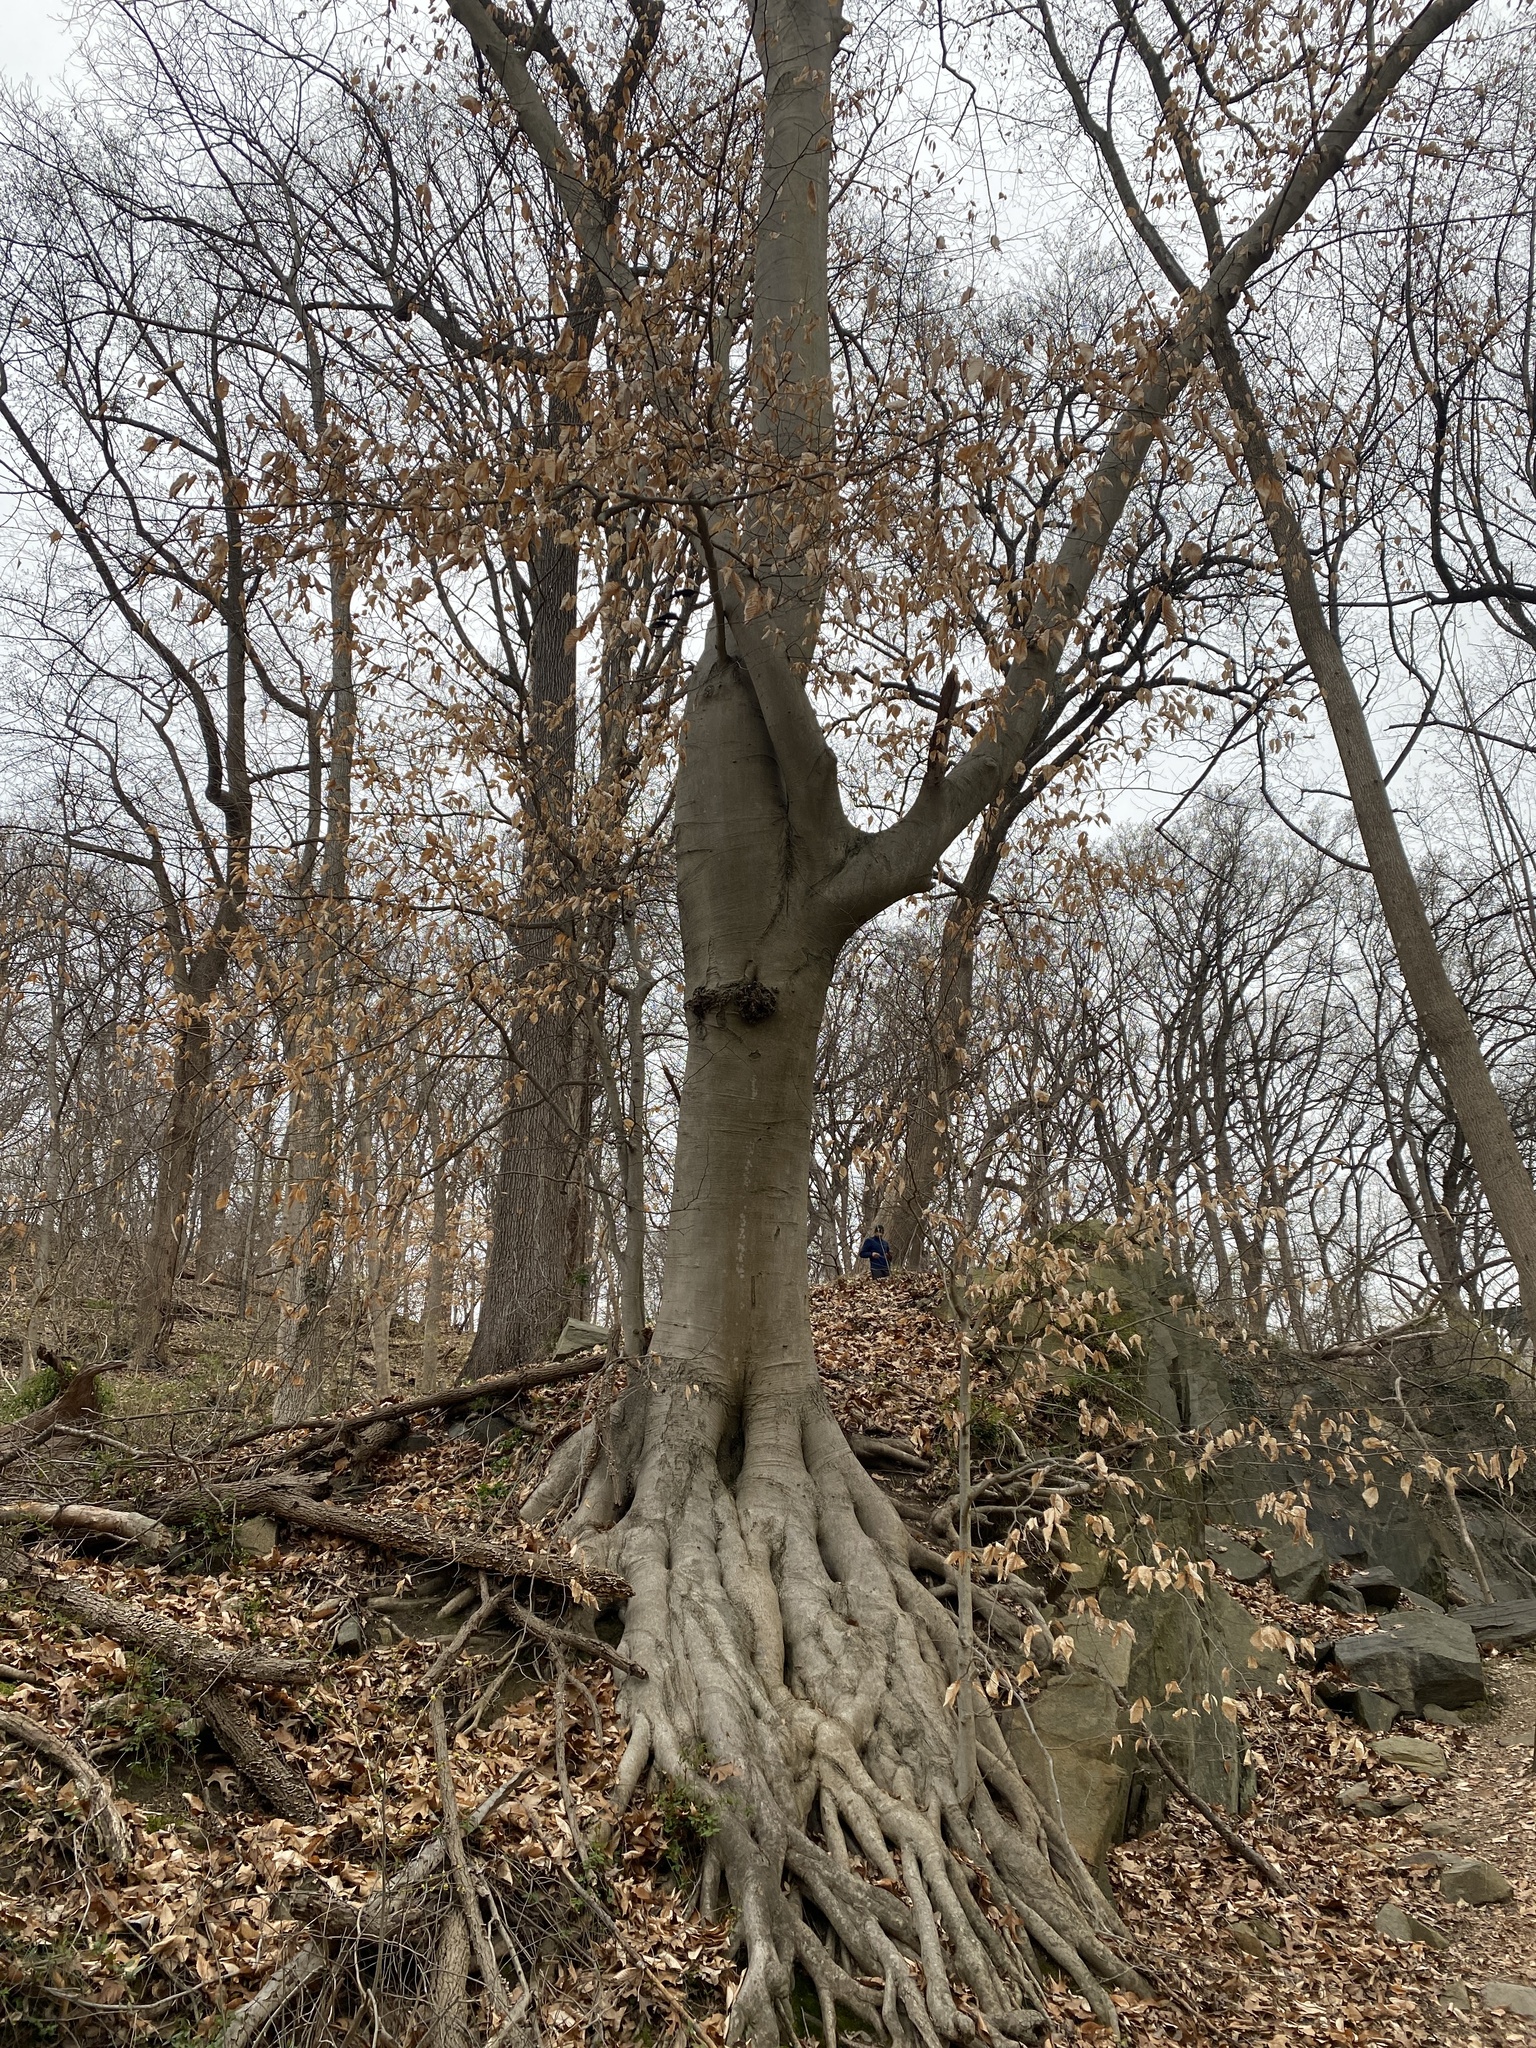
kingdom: Plantae
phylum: Tracheophyta
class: Magnoliopsida
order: Fagales
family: Fagaceae
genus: Fagus
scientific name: Fagus grandifolia
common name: American beech
